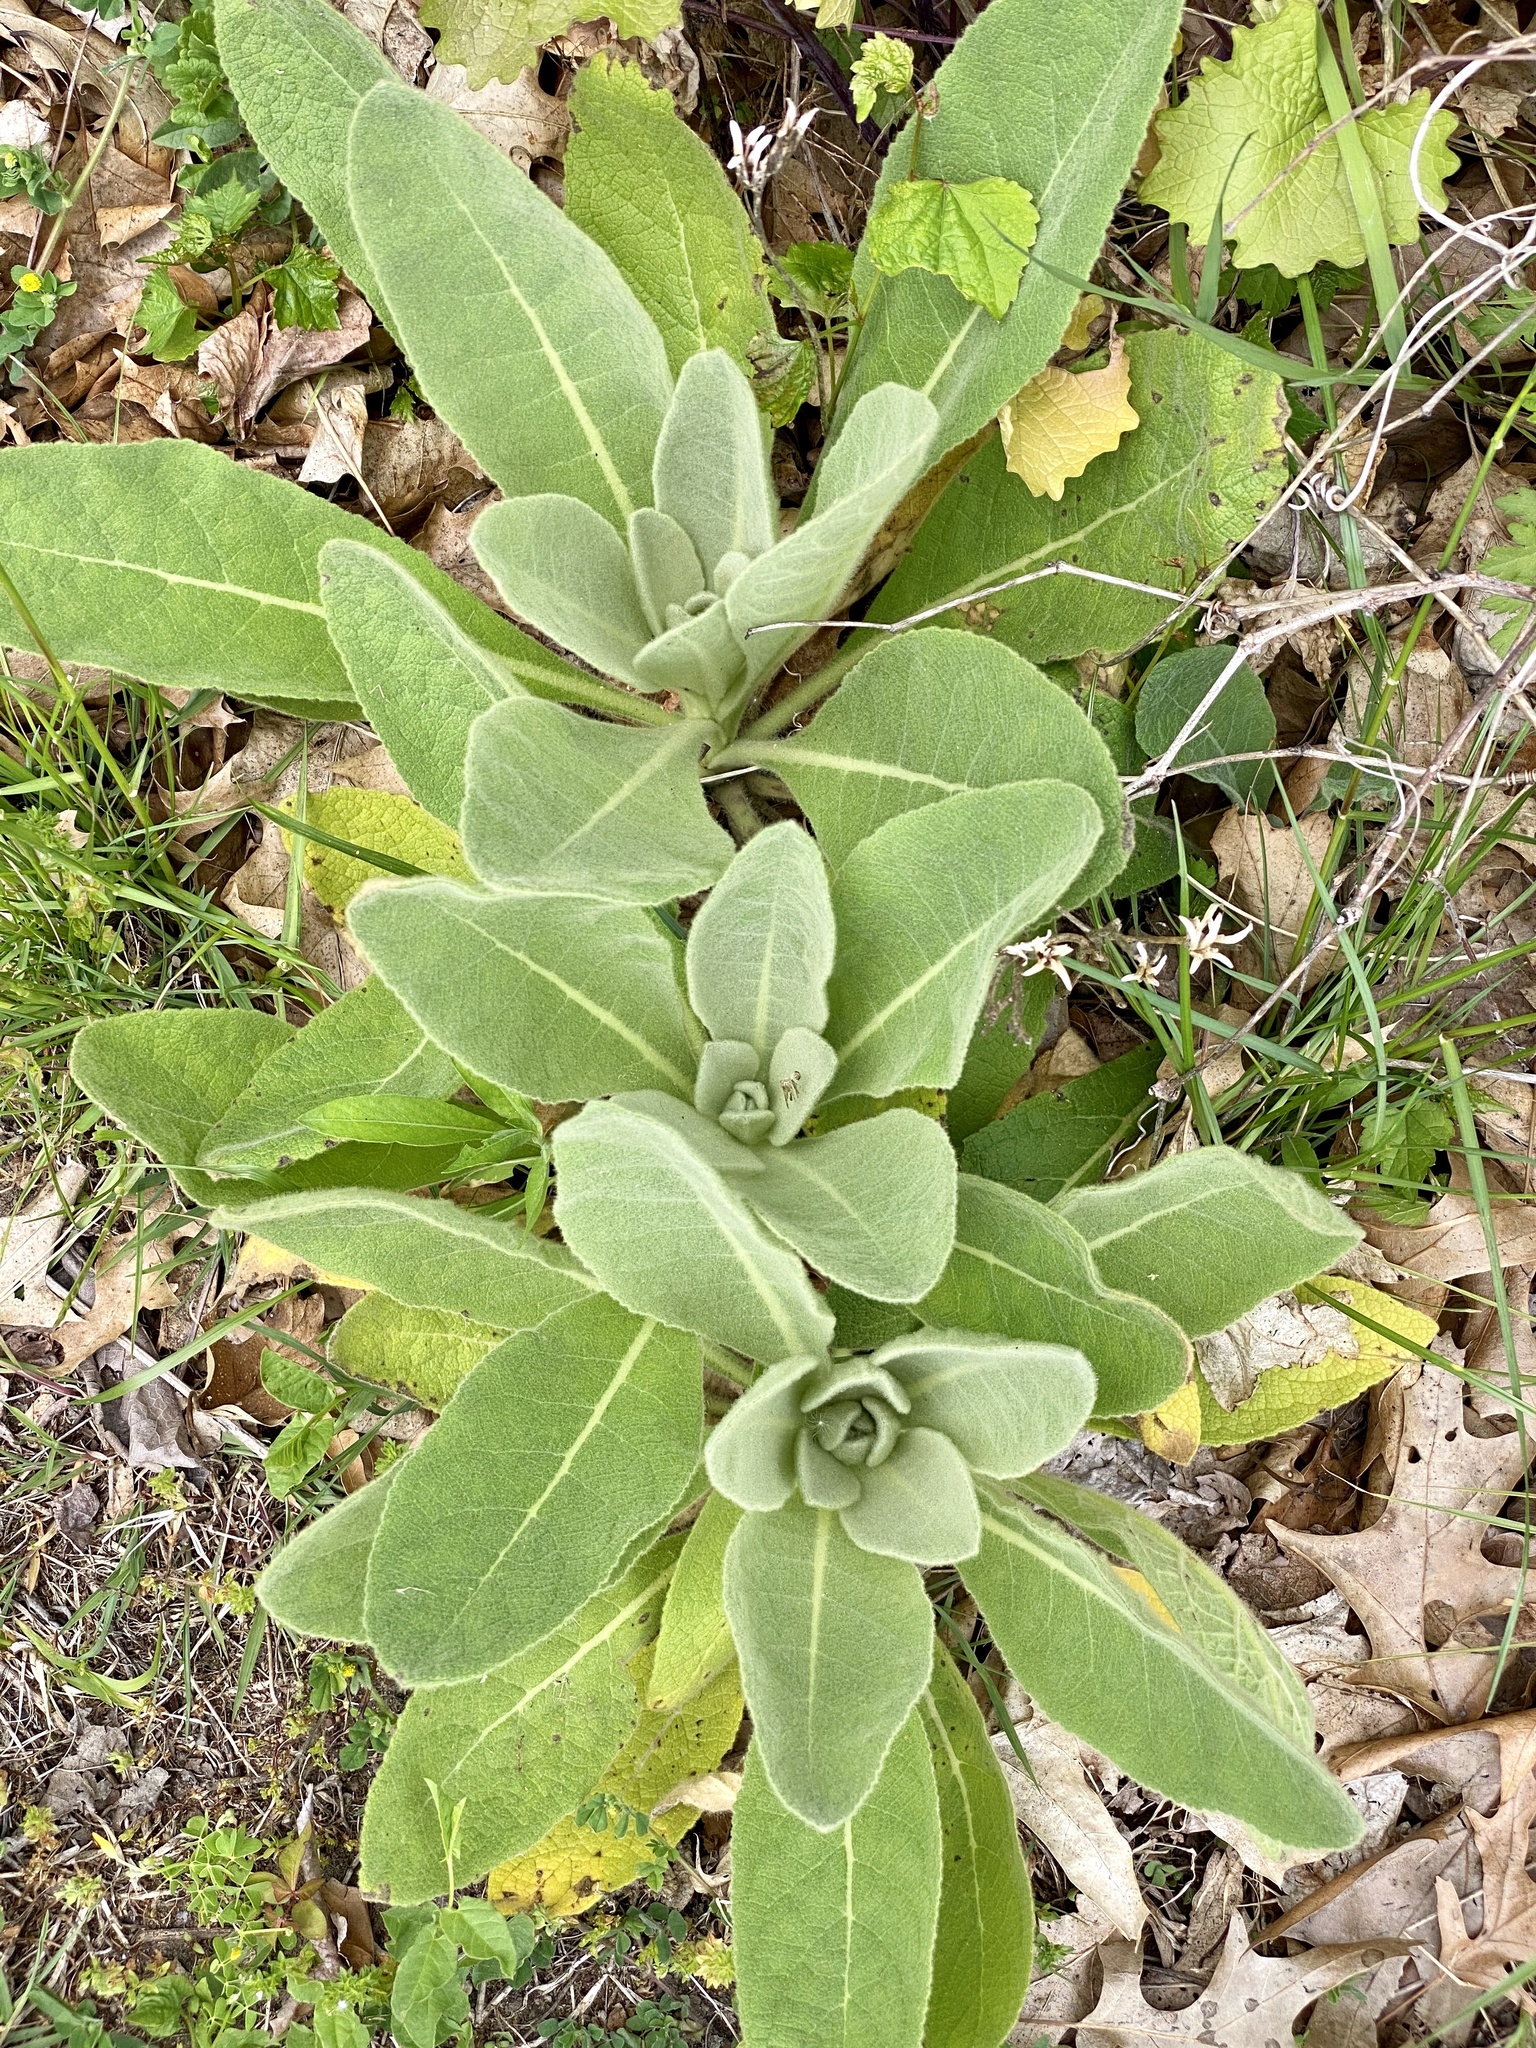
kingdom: Plantae
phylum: Tracheophyta
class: Magnoliopsida
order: Lamiales
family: Scrophulariaceae
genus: Verbascum
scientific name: Verbascum thapsus
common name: Common mullein
